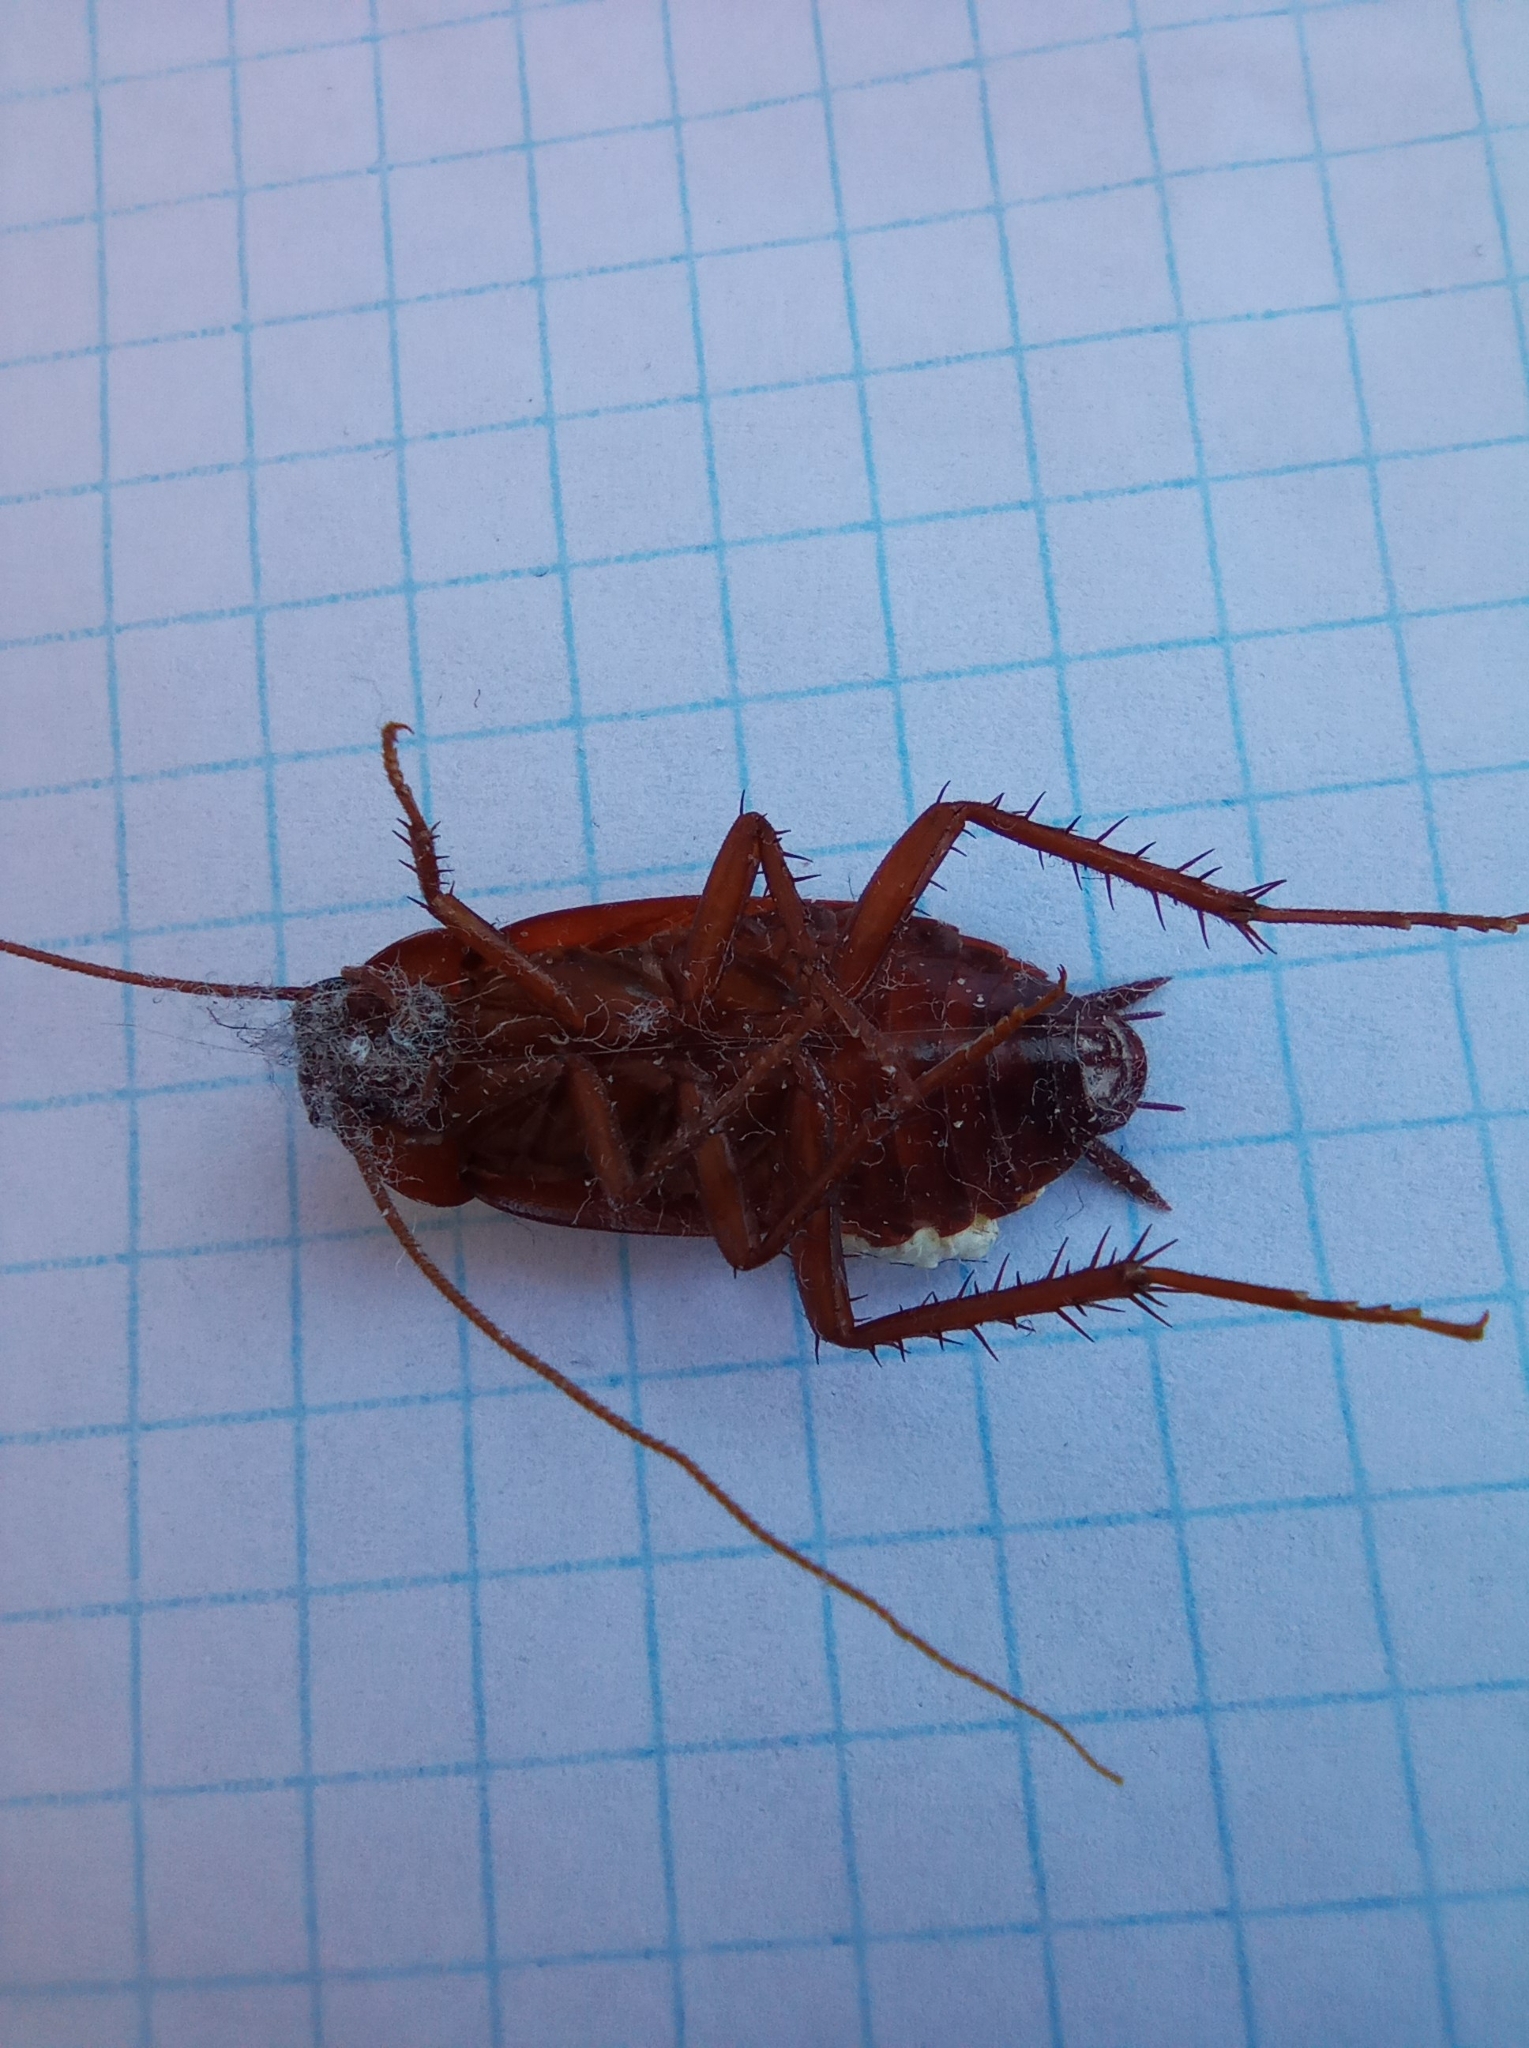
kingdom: Animalia
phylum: Arthropoda
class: Insecta
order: Blattodea
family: Blattidae
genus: Blatta
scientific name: Blatta orientalis
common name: Oriental cockroach
